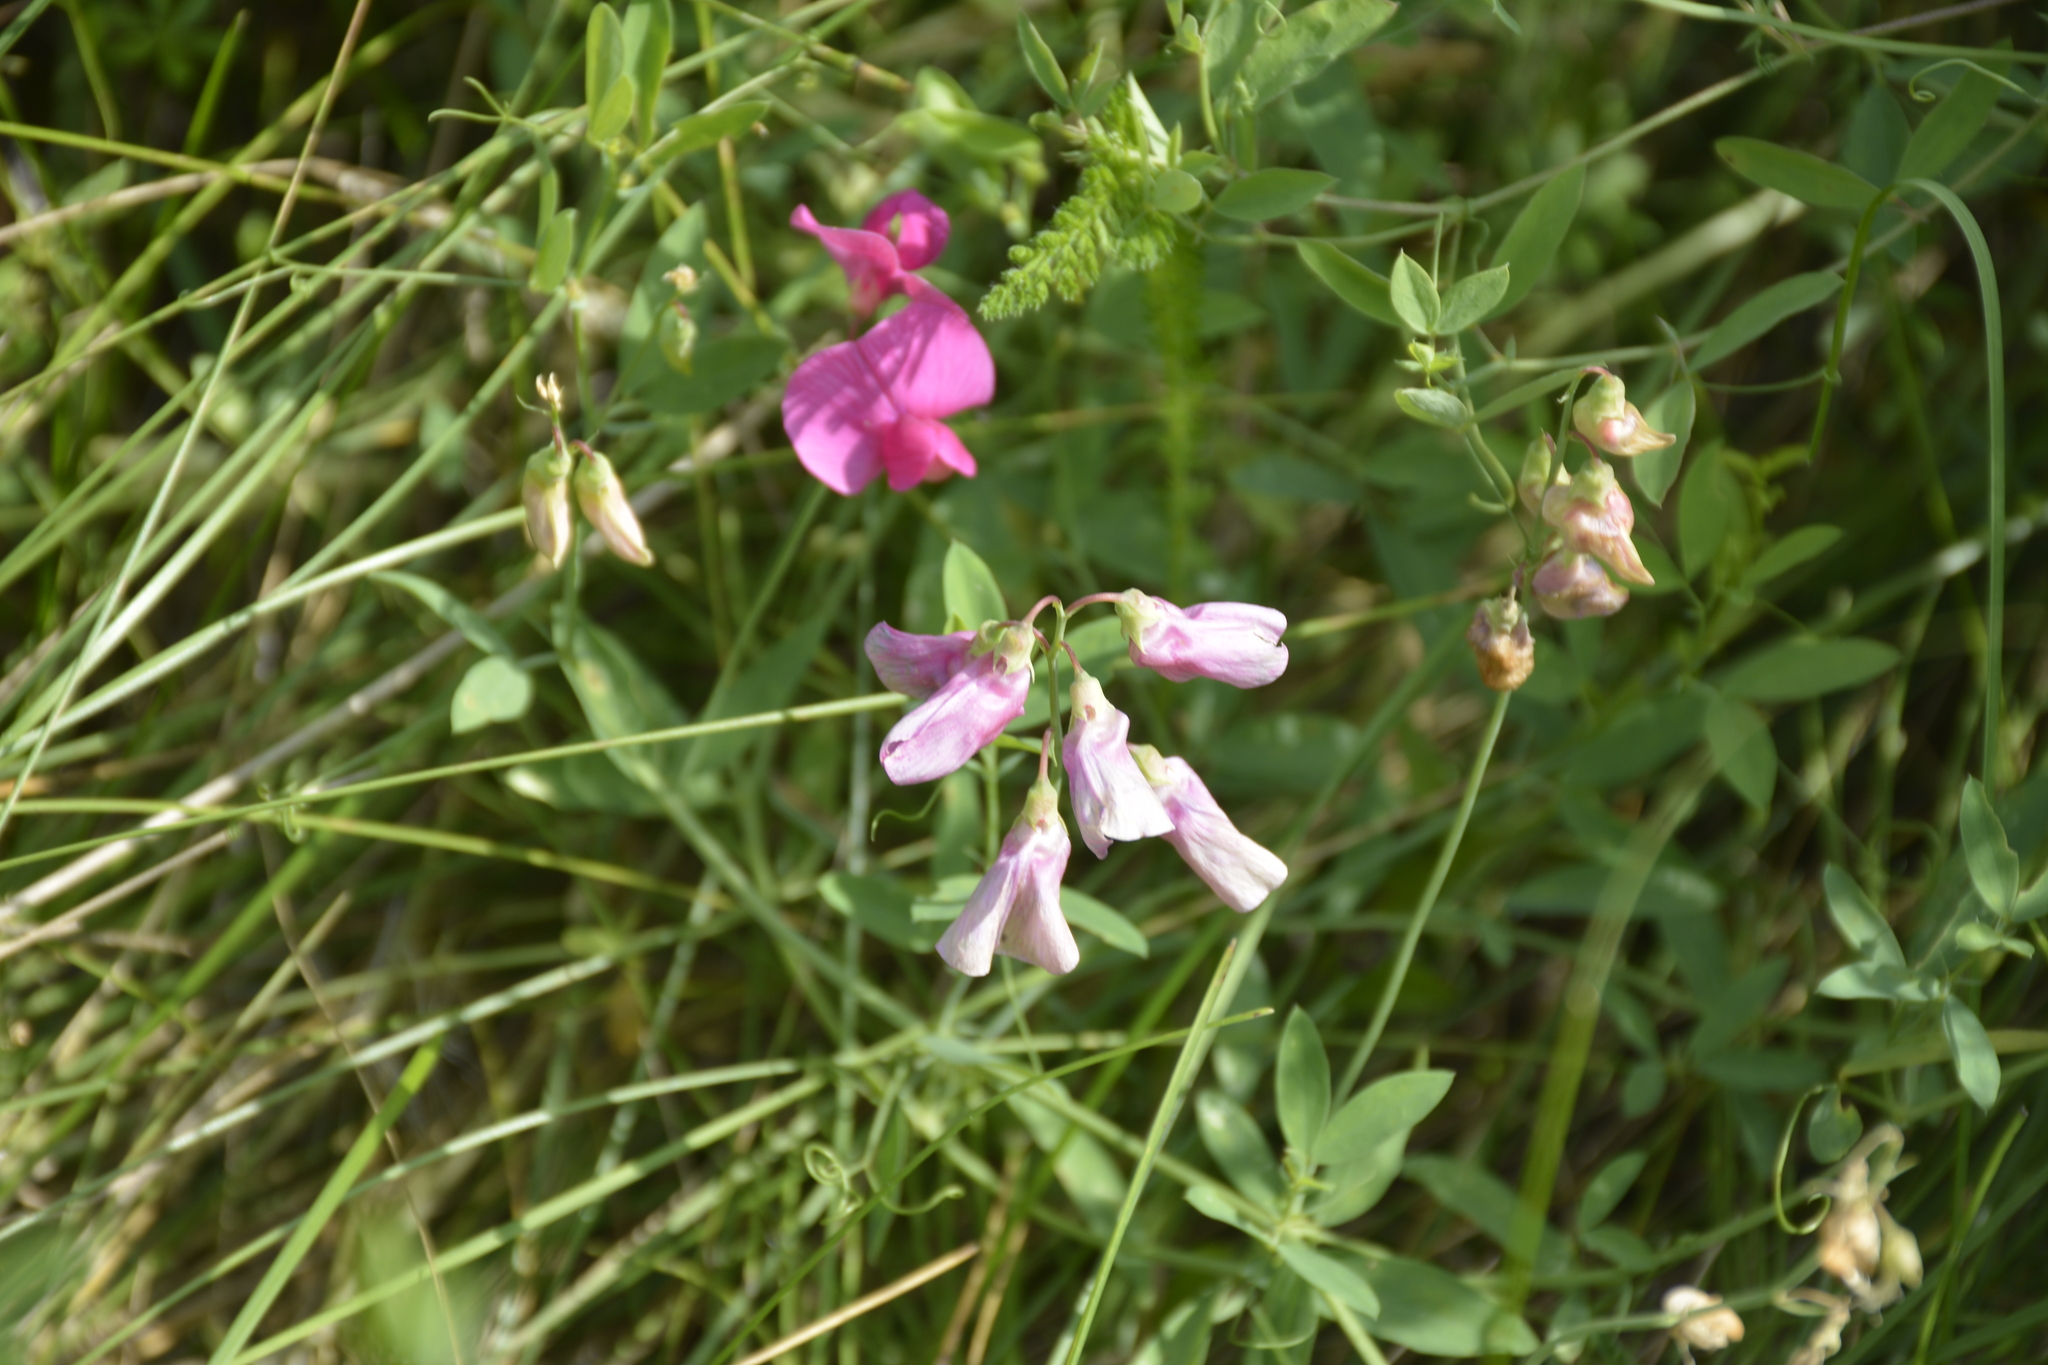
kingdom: Plantae
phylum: Tracheophyta
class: Magnoliopsida
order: Fabales
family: Fabaceae
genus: Lathyrus
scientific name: Lathyrus tuberosus
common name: Tuberous pea
